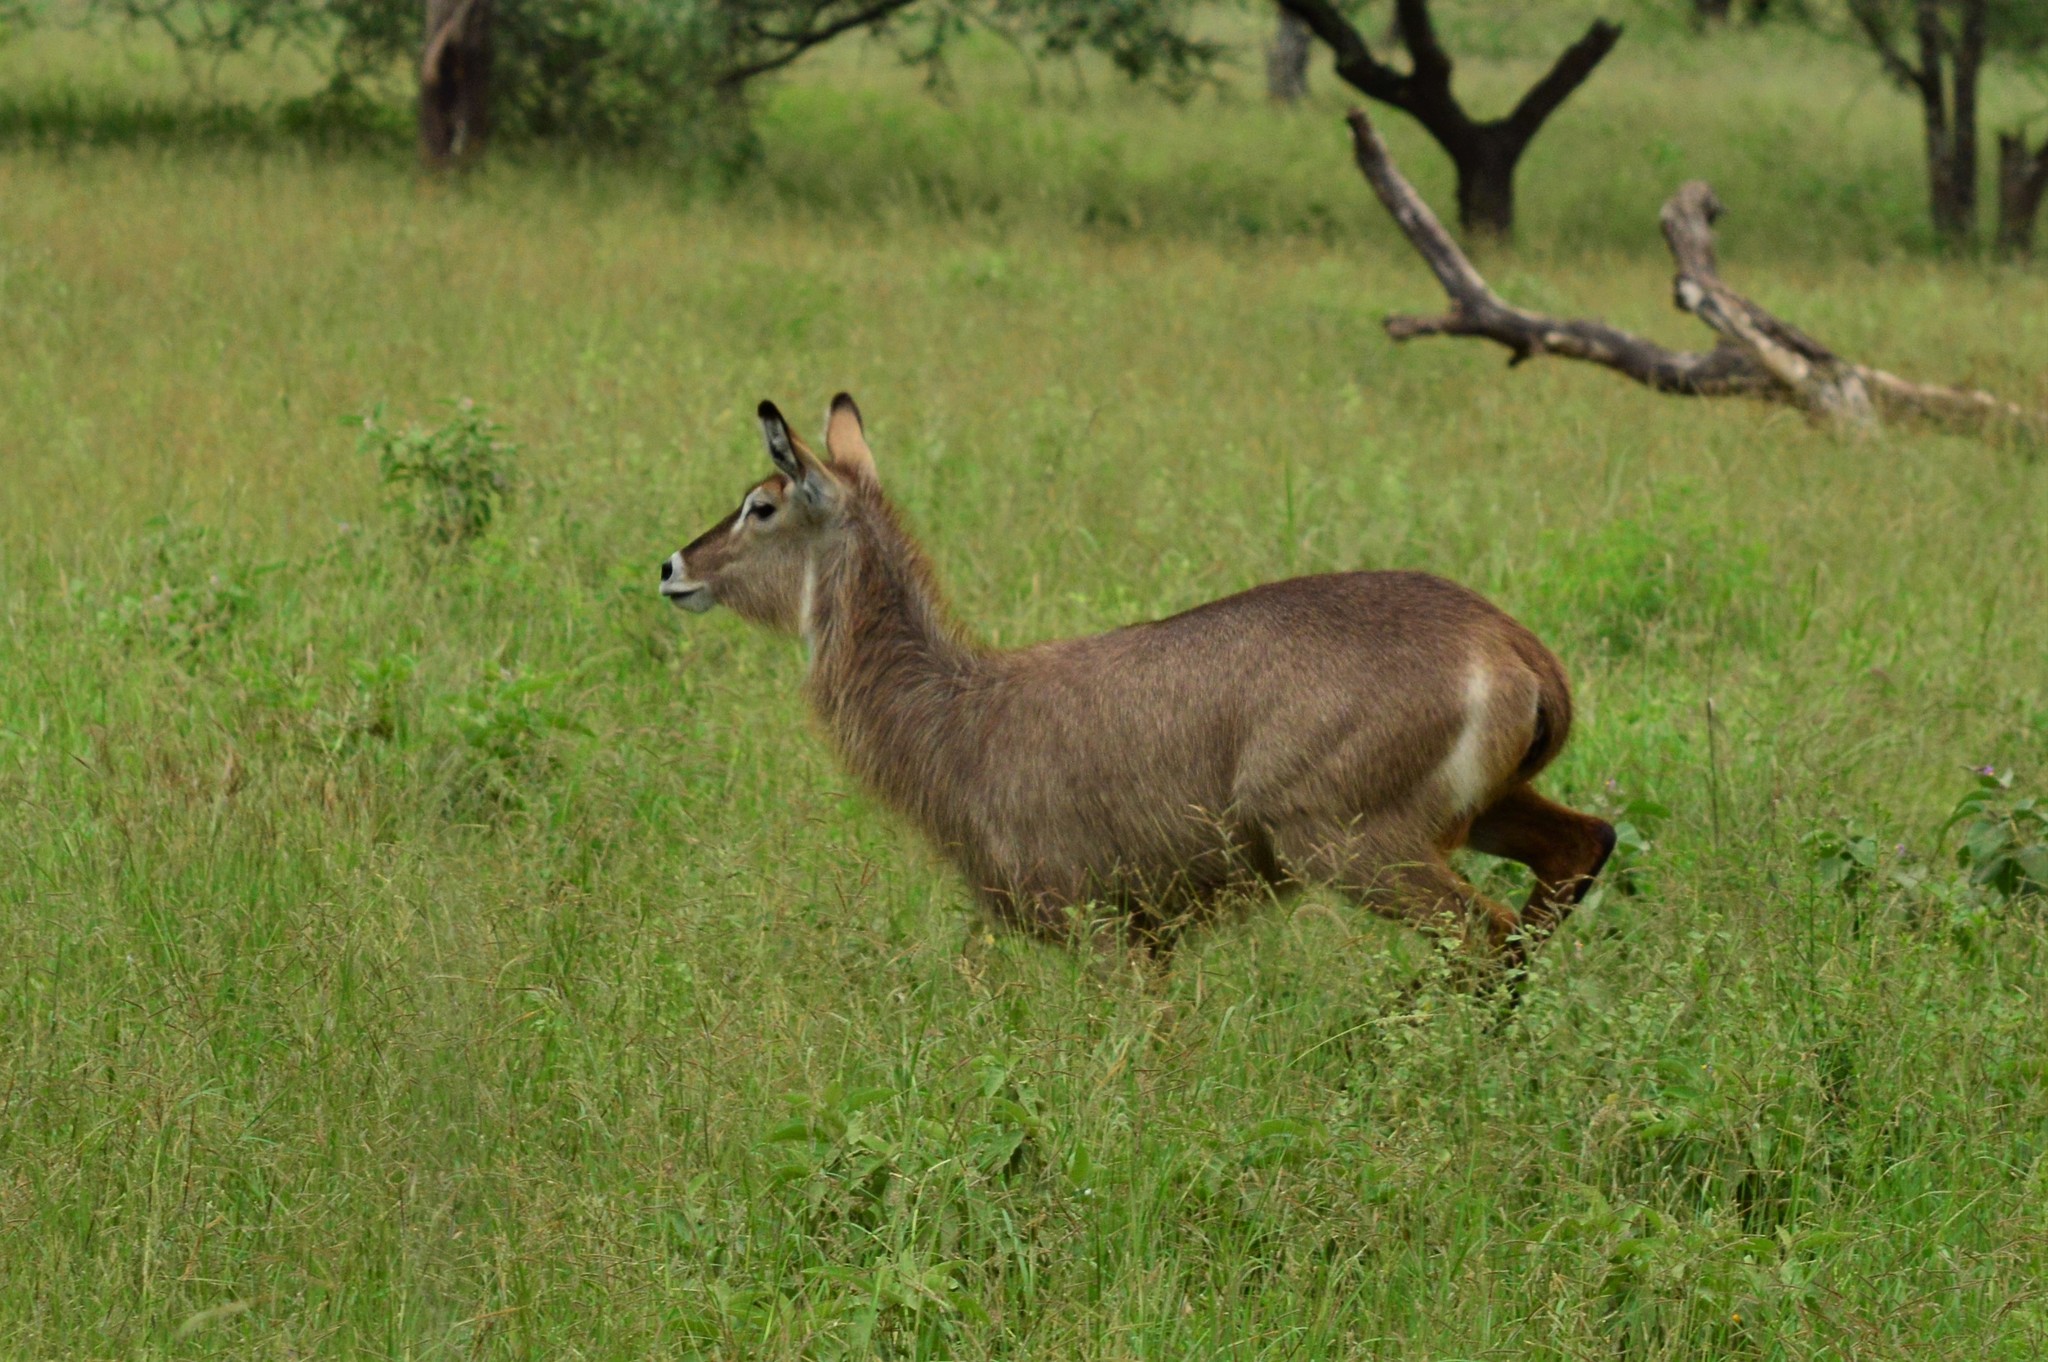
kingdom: Animalia
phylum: Chordata
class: Mammalia
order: Artiodactyla
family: Bovidae
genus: Kobus
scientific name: Kobus ellipsiprymnus
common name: Waterbuck
